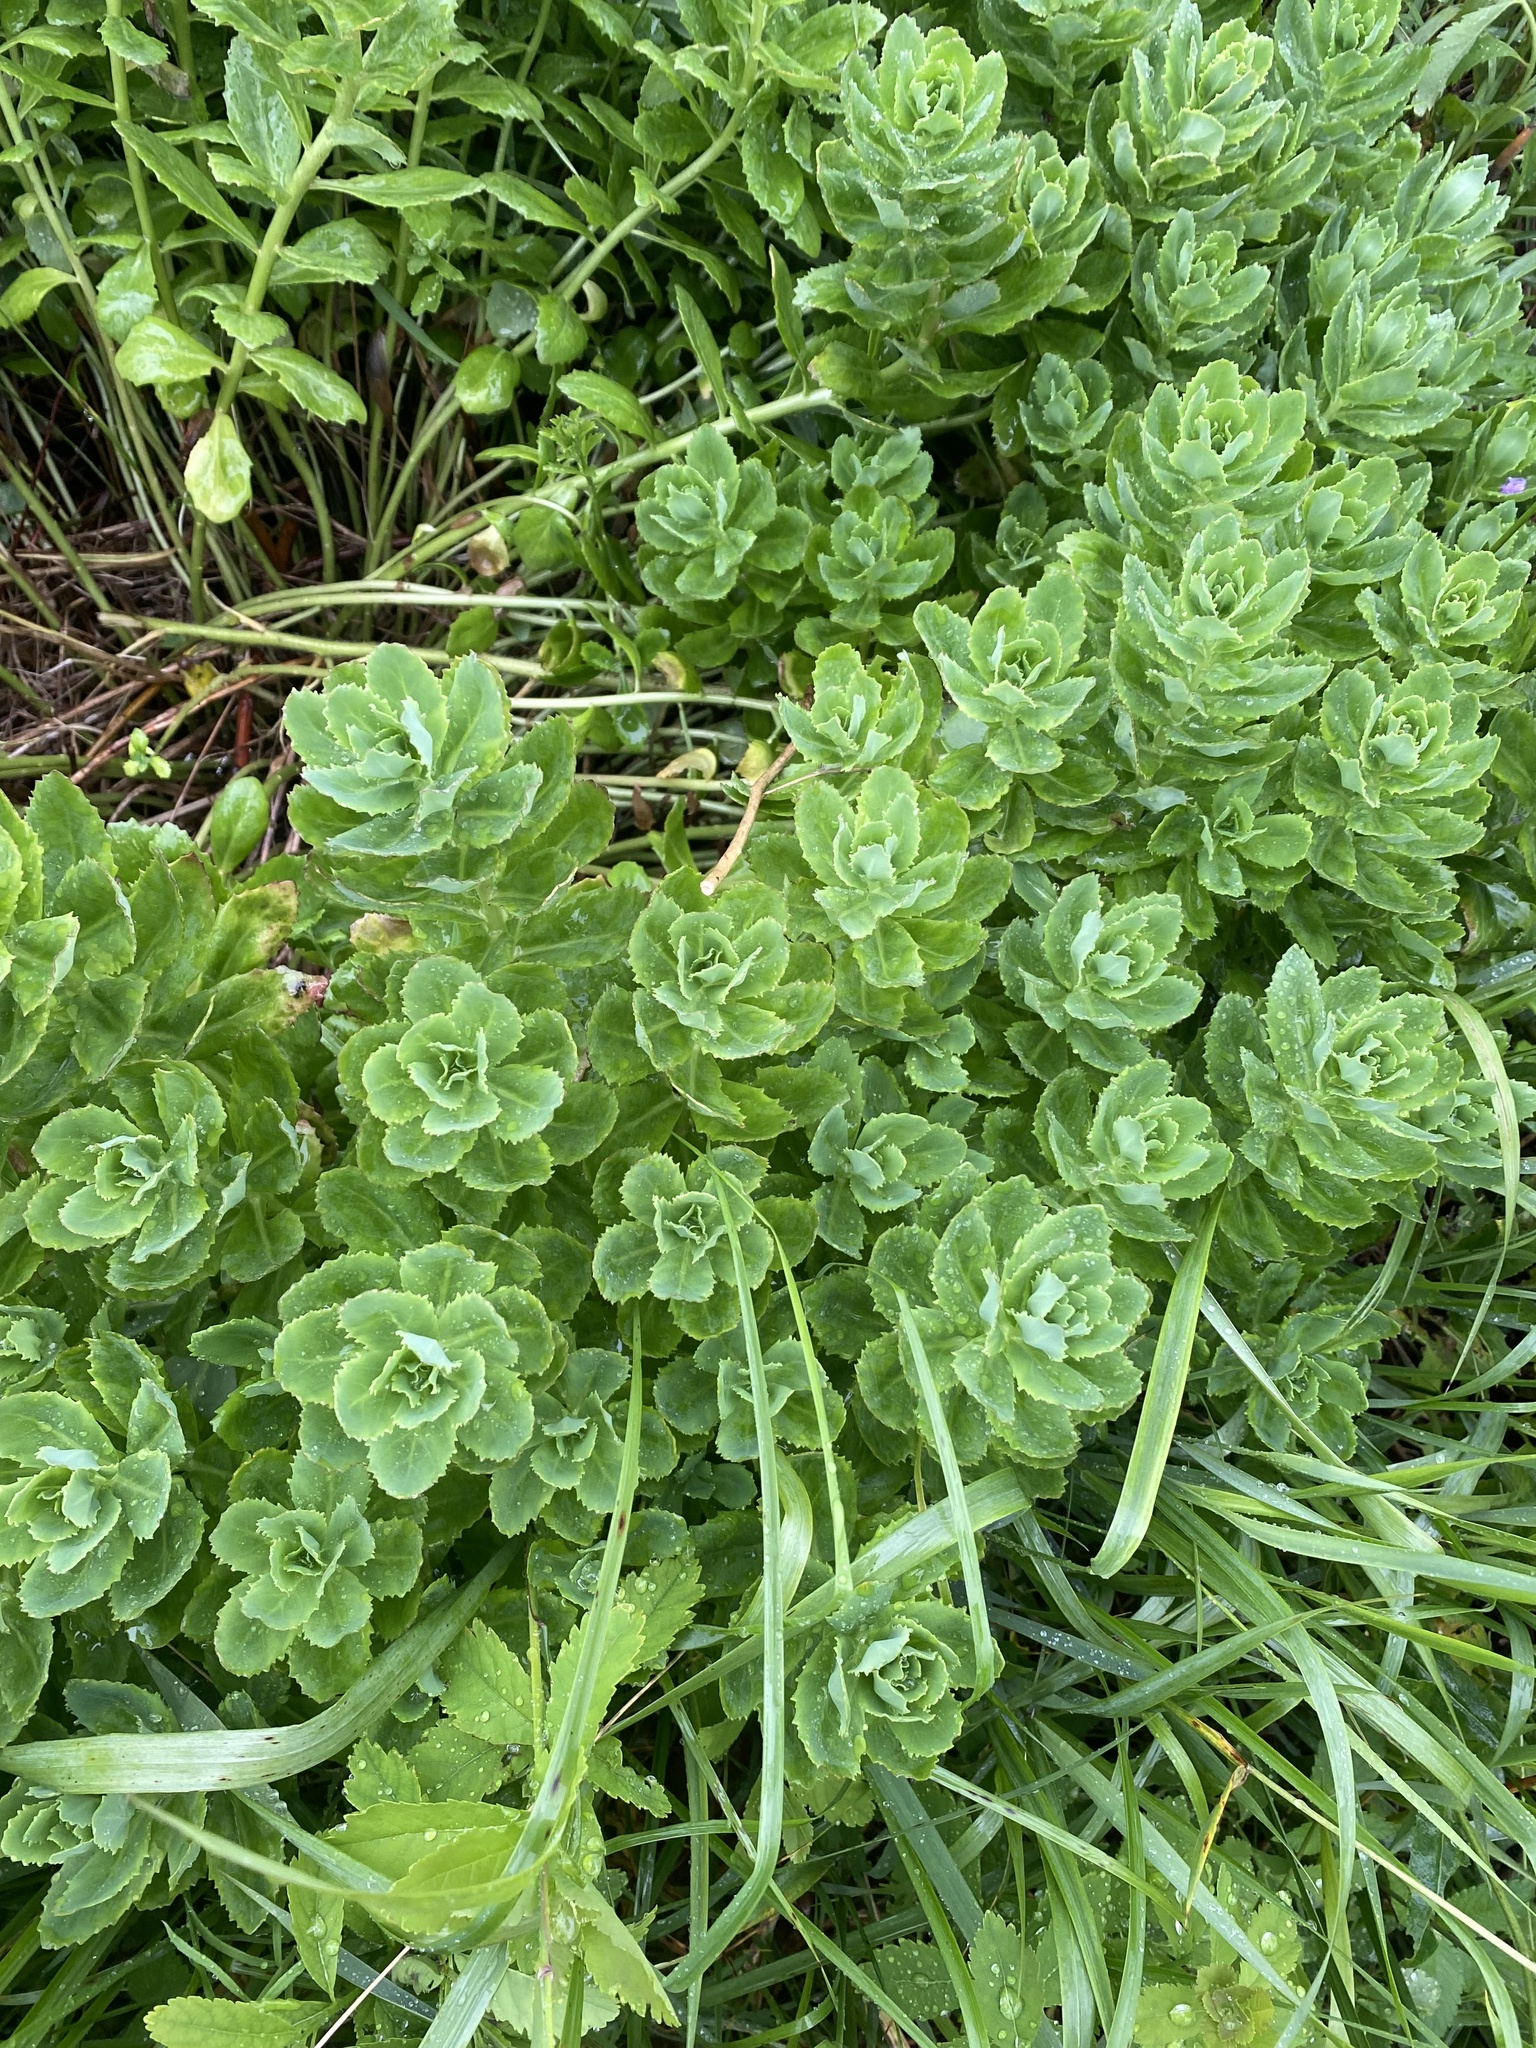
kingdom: Plantae
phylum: Tracheophyta
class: Magnoliopsida
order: Saxifragales
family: Crassulaceae
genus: Hylotelephium
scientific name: Hylotelephium telephium
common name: Live-forever
